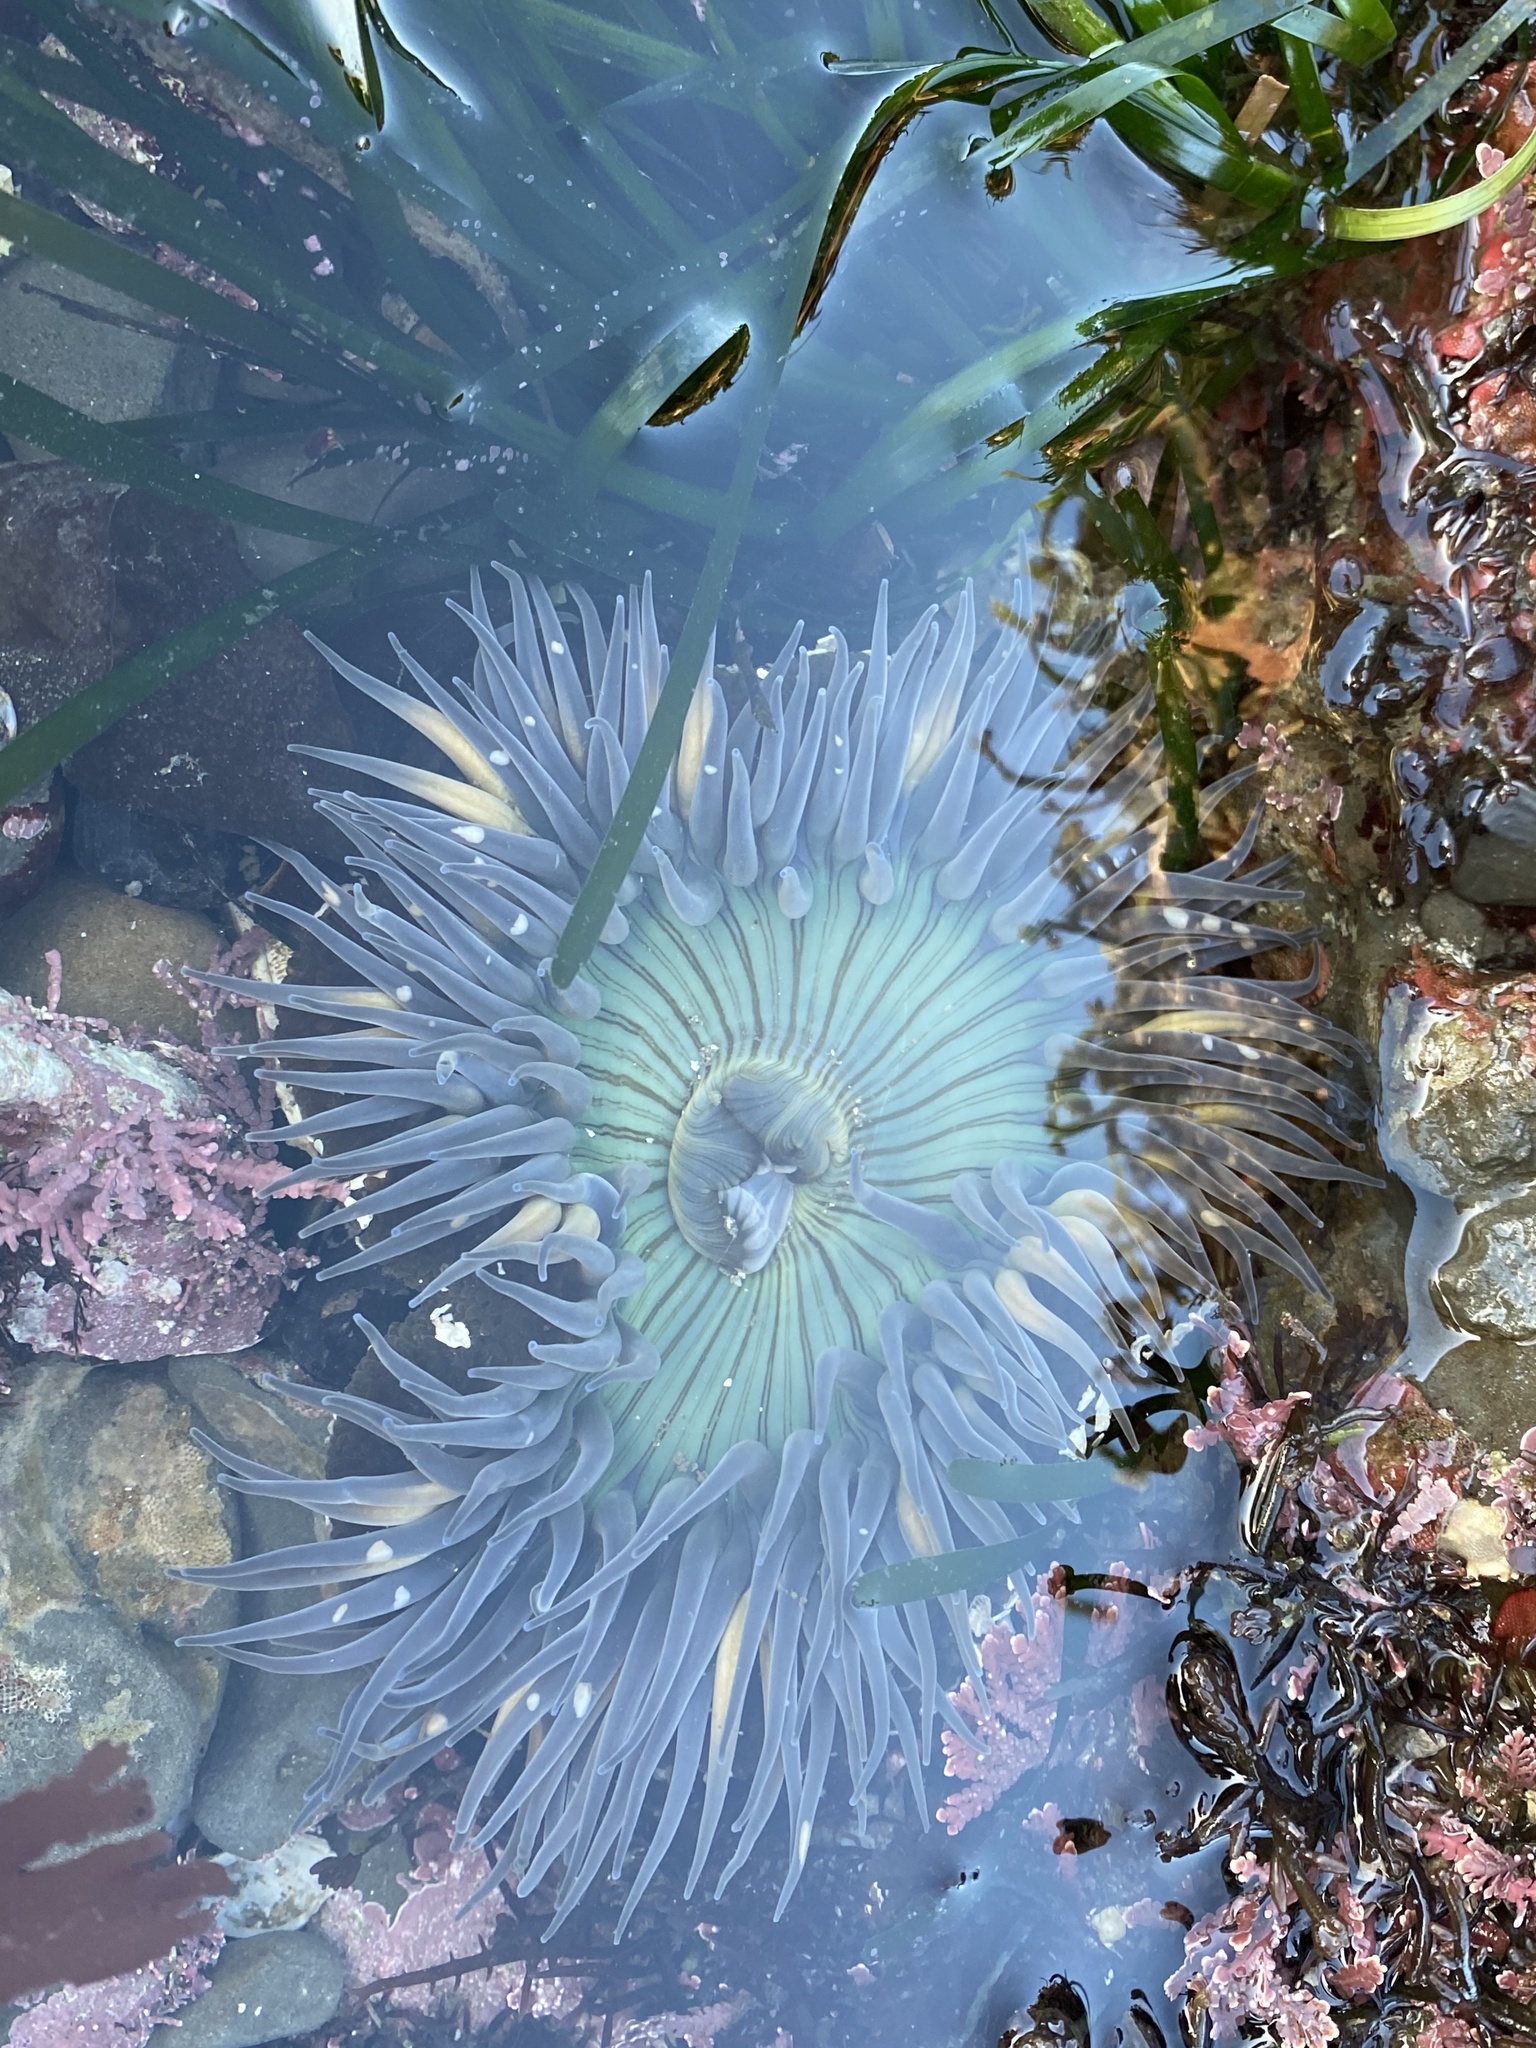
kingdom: Animalia
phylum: Cnidaria
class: Anthozoa
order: Actiniaria
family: Actiniidae
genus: Anthopleura
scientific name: Anthopleura sola
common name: Sun anemone
